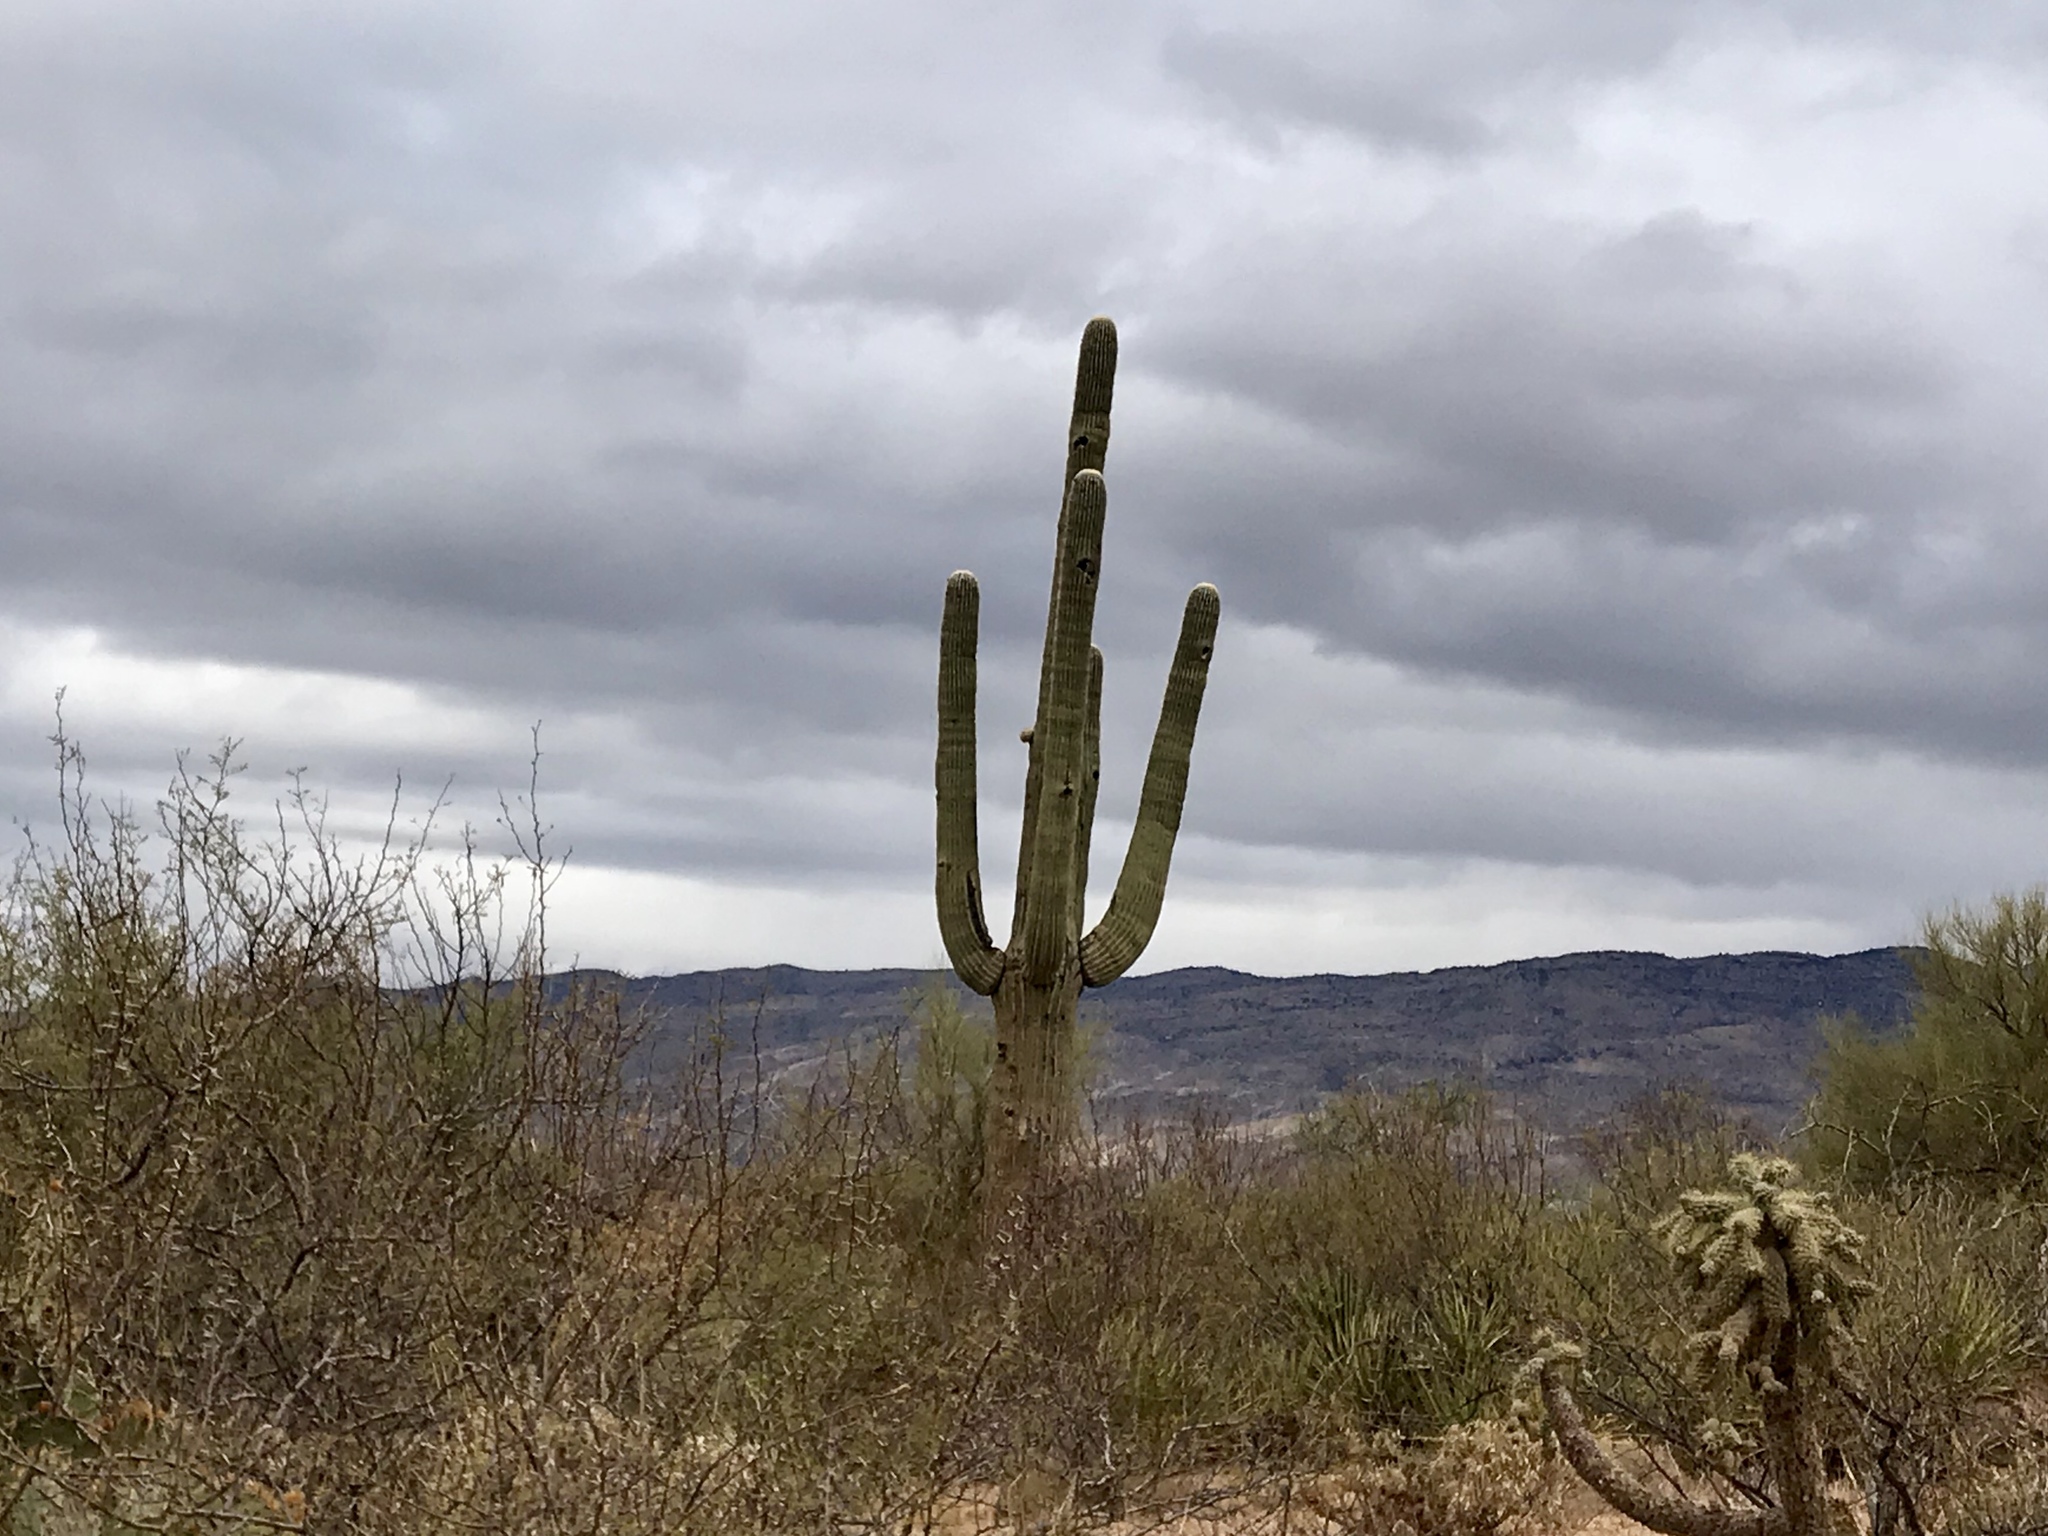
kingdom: Plantae
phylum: Tracheophyta
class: Magnoliopsida
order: Caryophyllales
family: Cactaceae
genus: Carnegiea
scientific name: Carnegiea gigantea
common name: Saguaro
